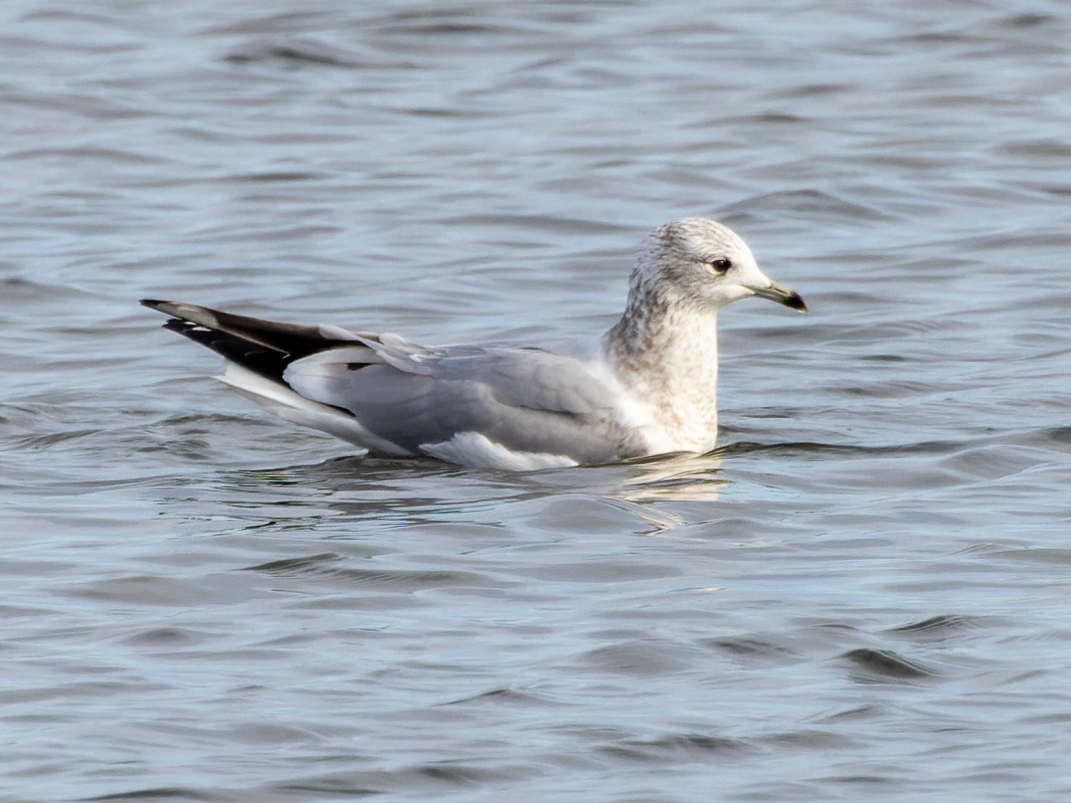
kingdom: Animalia
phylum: Chordata
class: Aves
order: Charadriiformes
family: Laridae
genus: Larus
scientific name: Larus canus
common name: Mew gull
